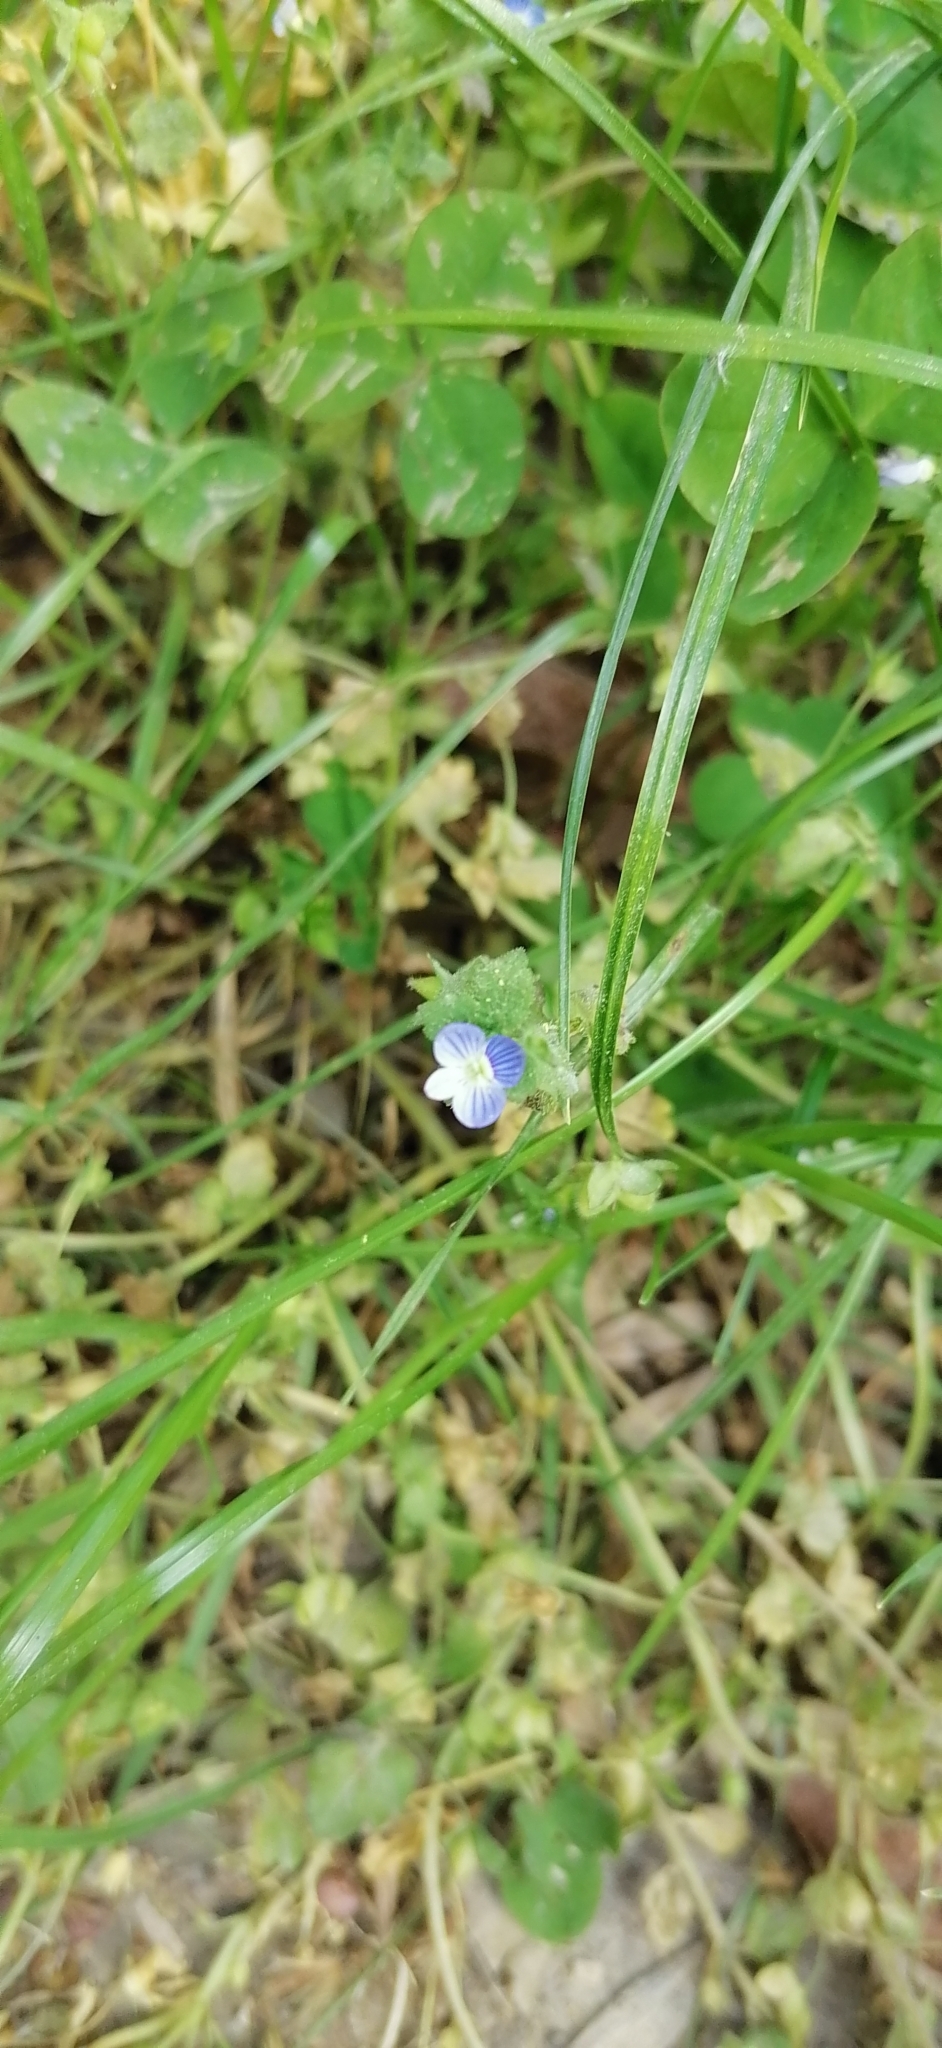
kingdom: Plantae
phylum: Tracheophyta
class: Magnoliopsida
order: Lamiales
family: Plantaginaceae
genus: Veronica
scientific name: Veronica persica
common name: Common field-speedwell
